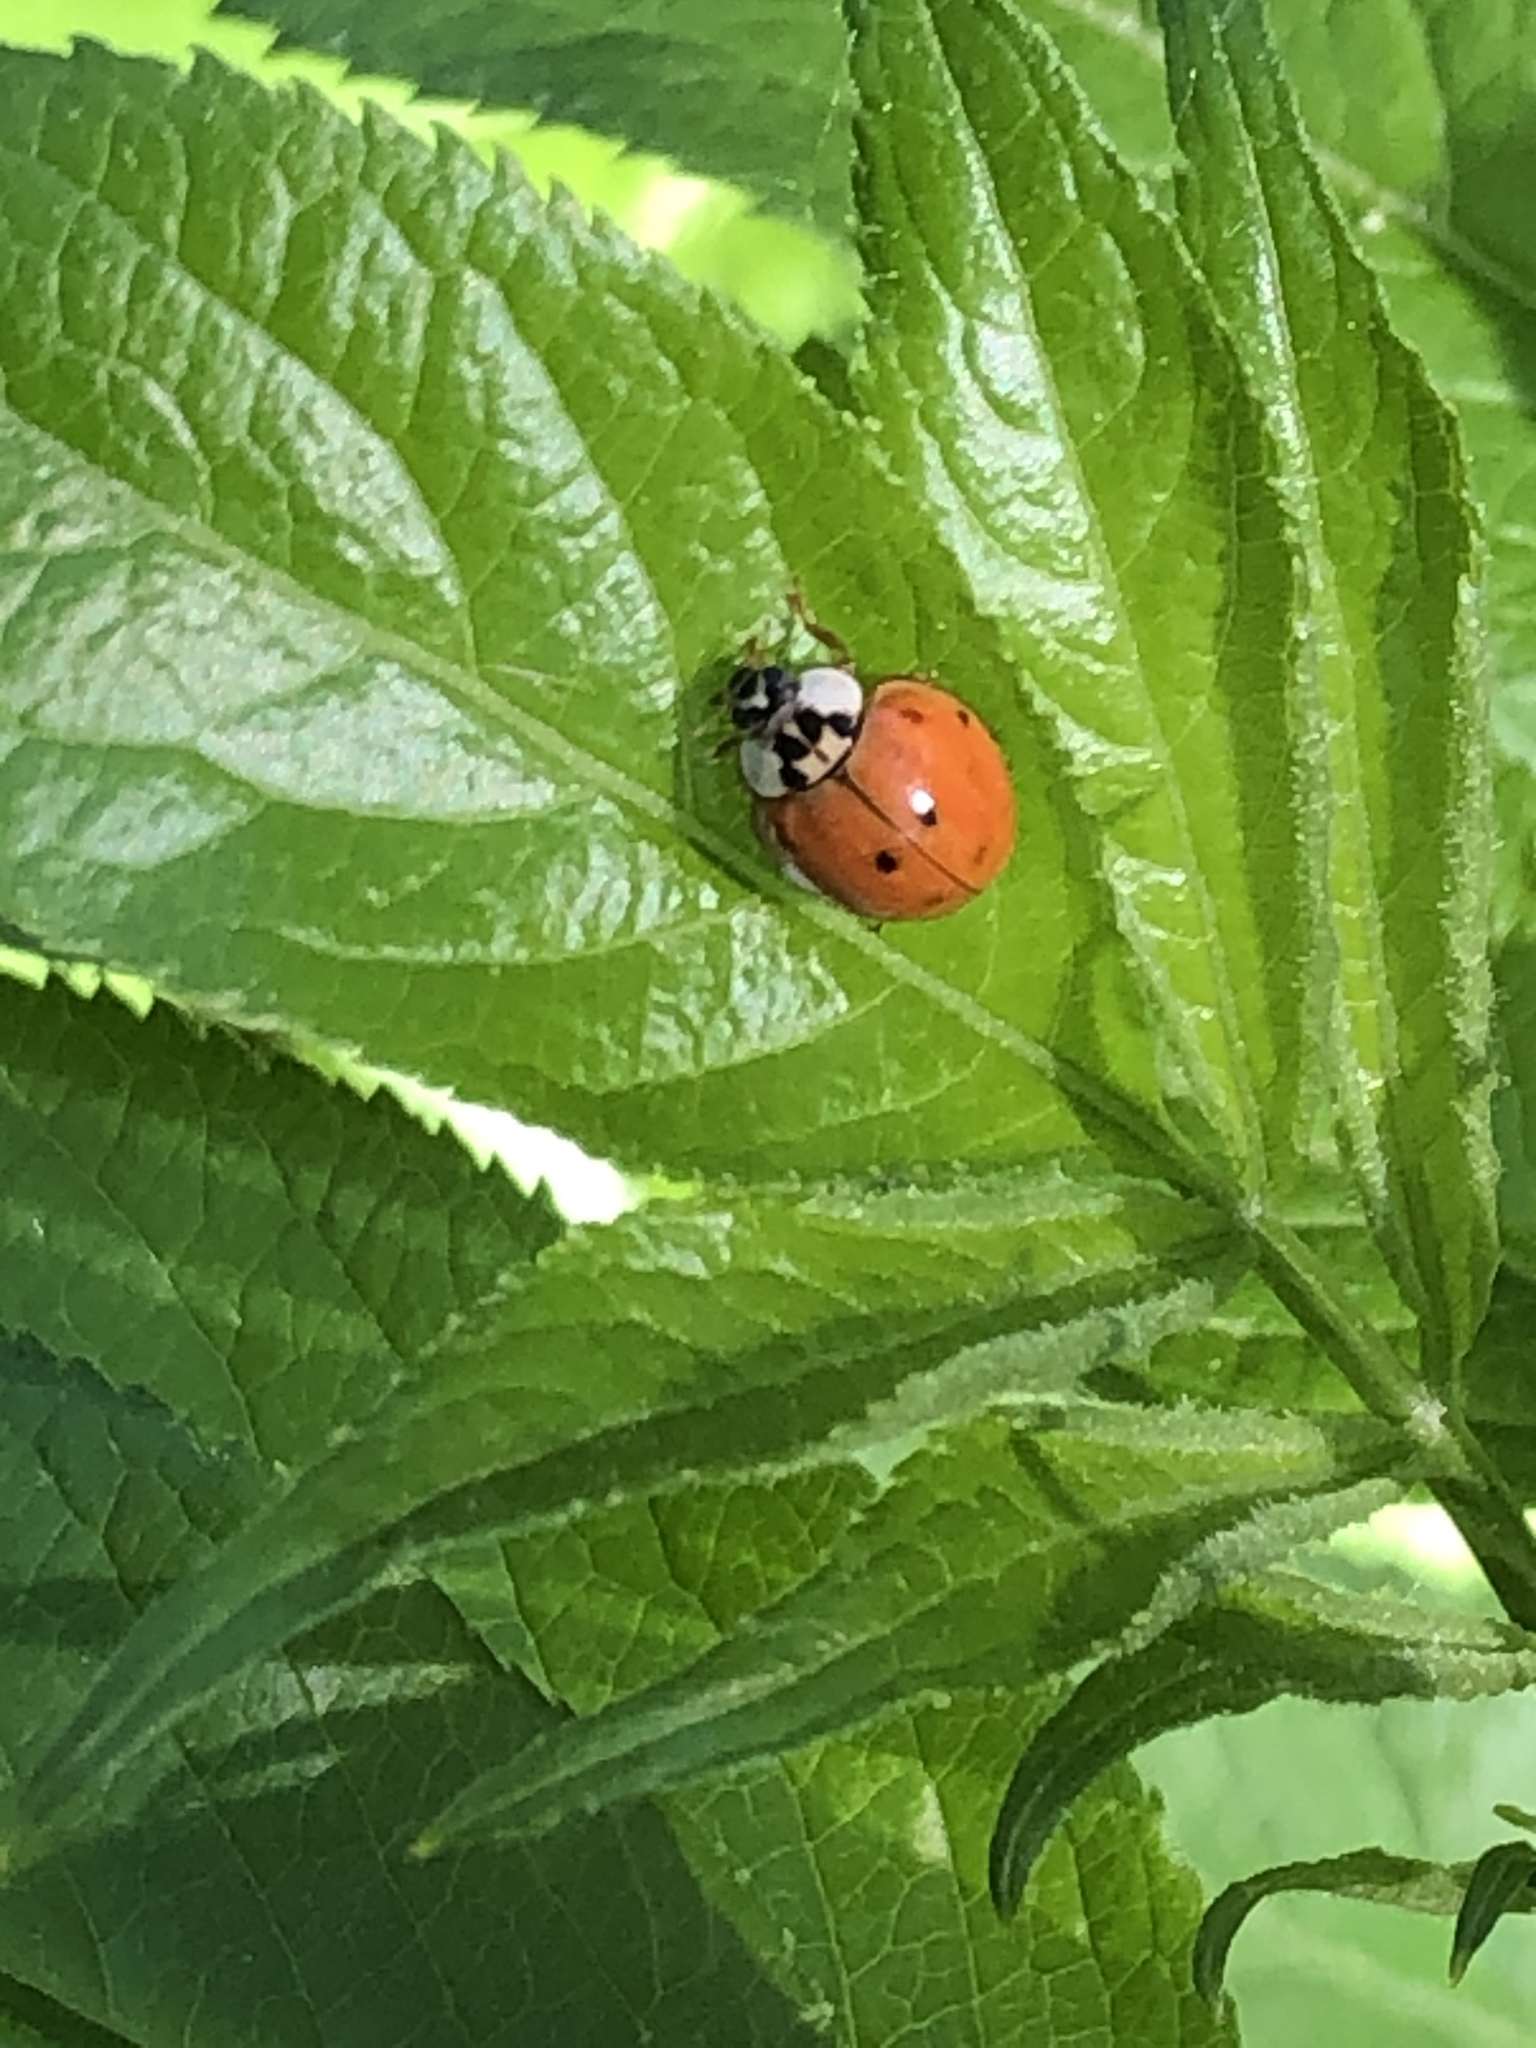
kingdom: Animalia
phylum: Arthropoda
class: Insecta
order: Coleoptera
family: Coccinellidae
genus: Harmonia
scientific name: Harmonia axyridis
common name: Harlequin ladybird
